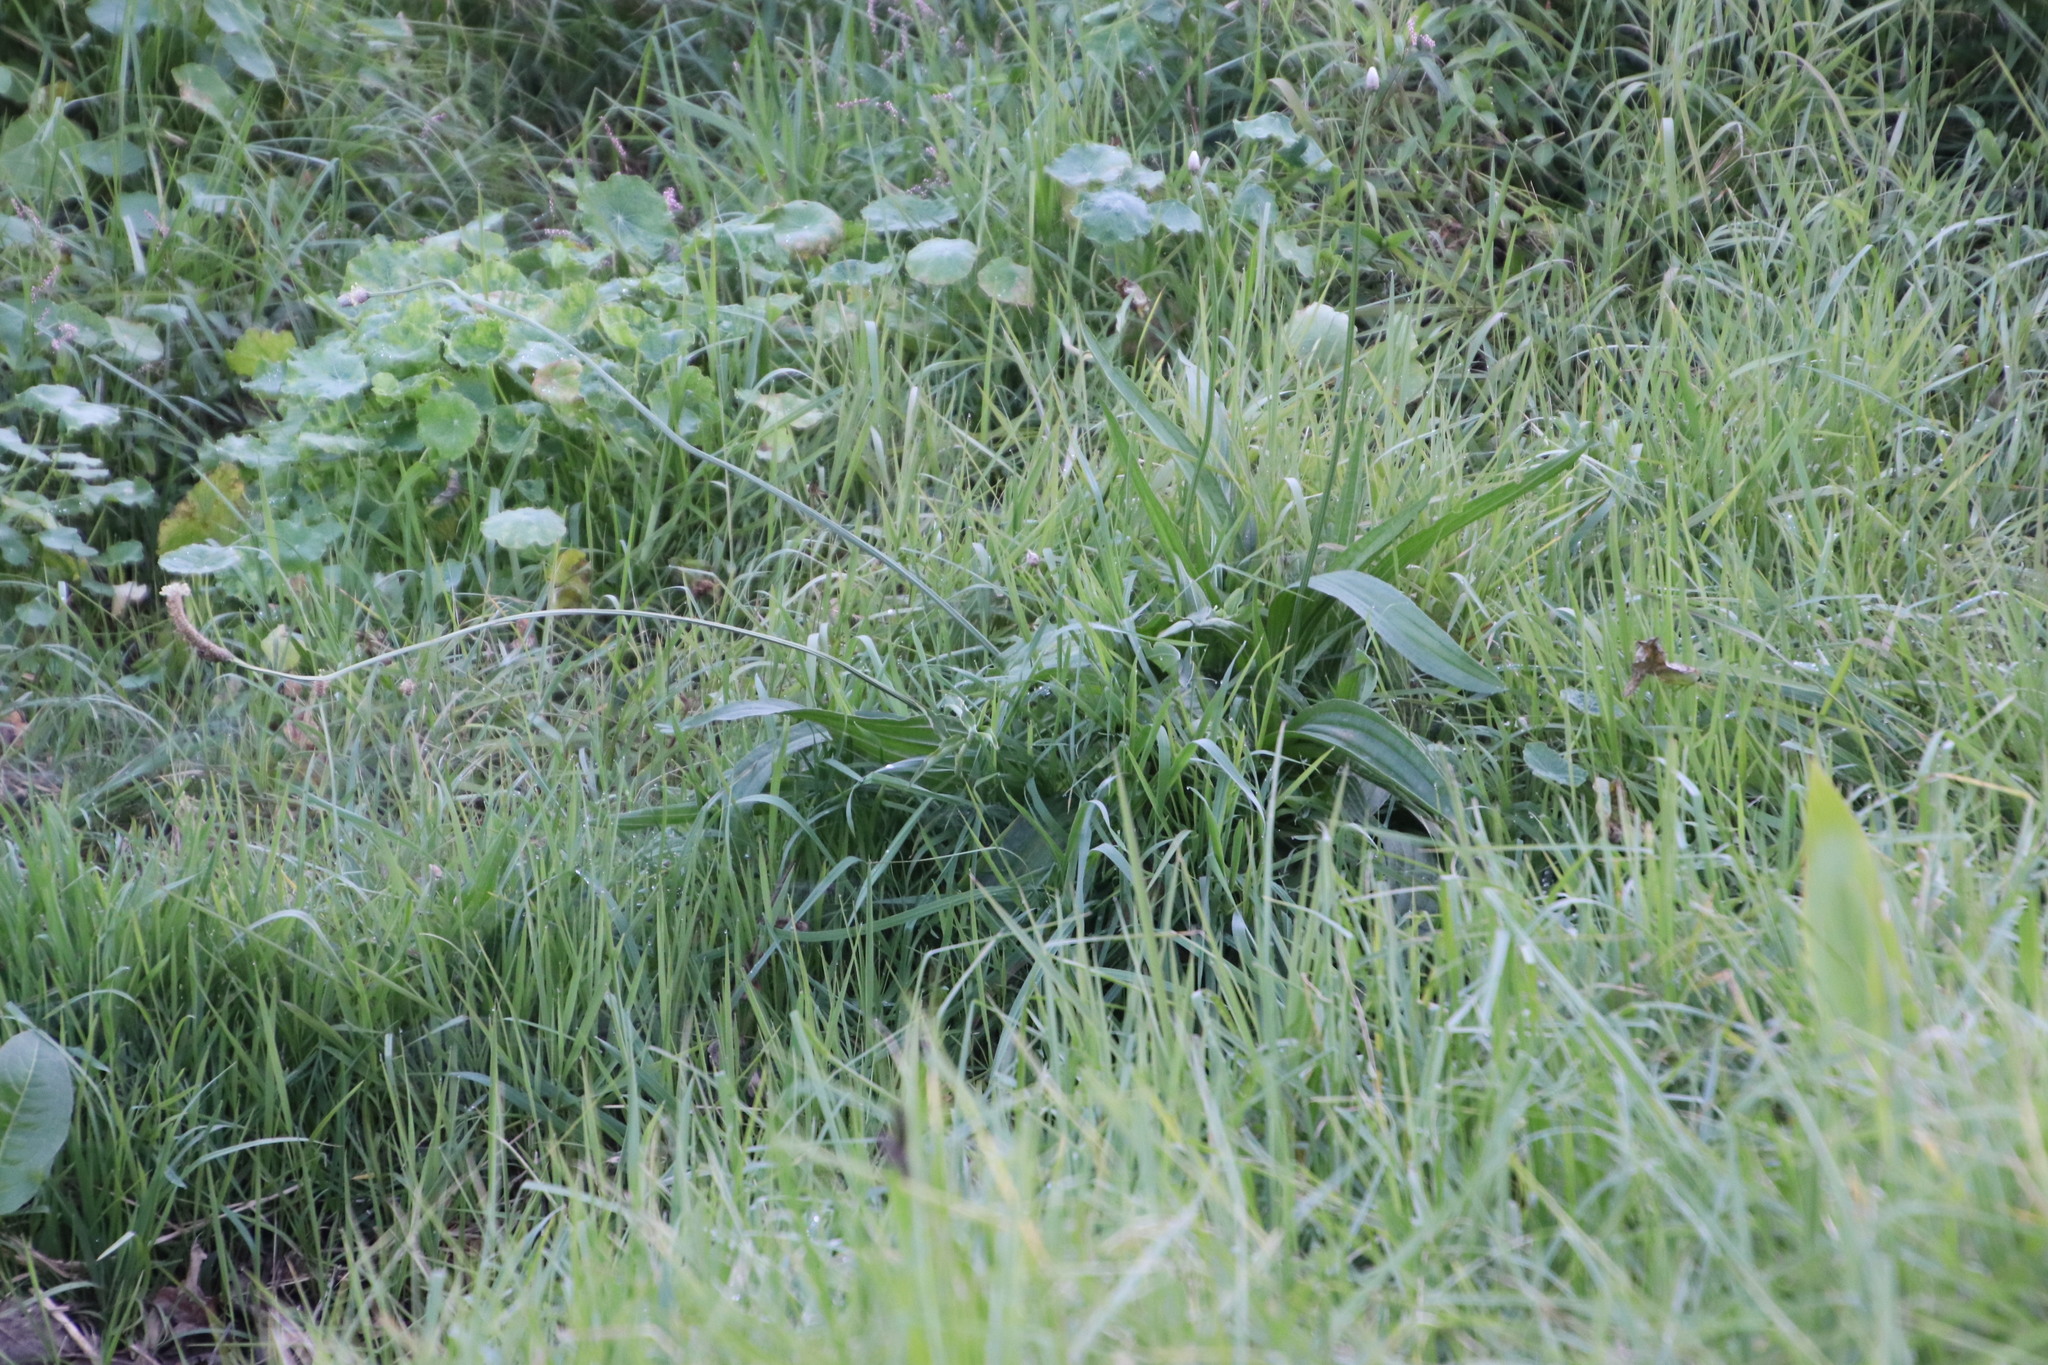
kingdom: Plantae
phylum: Tracheophyta
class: Magnoliopsida
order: Lamiales
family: Plantaginaceae
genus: Plantago
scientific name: Plantago lanceolata
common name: Ribwort plantain
